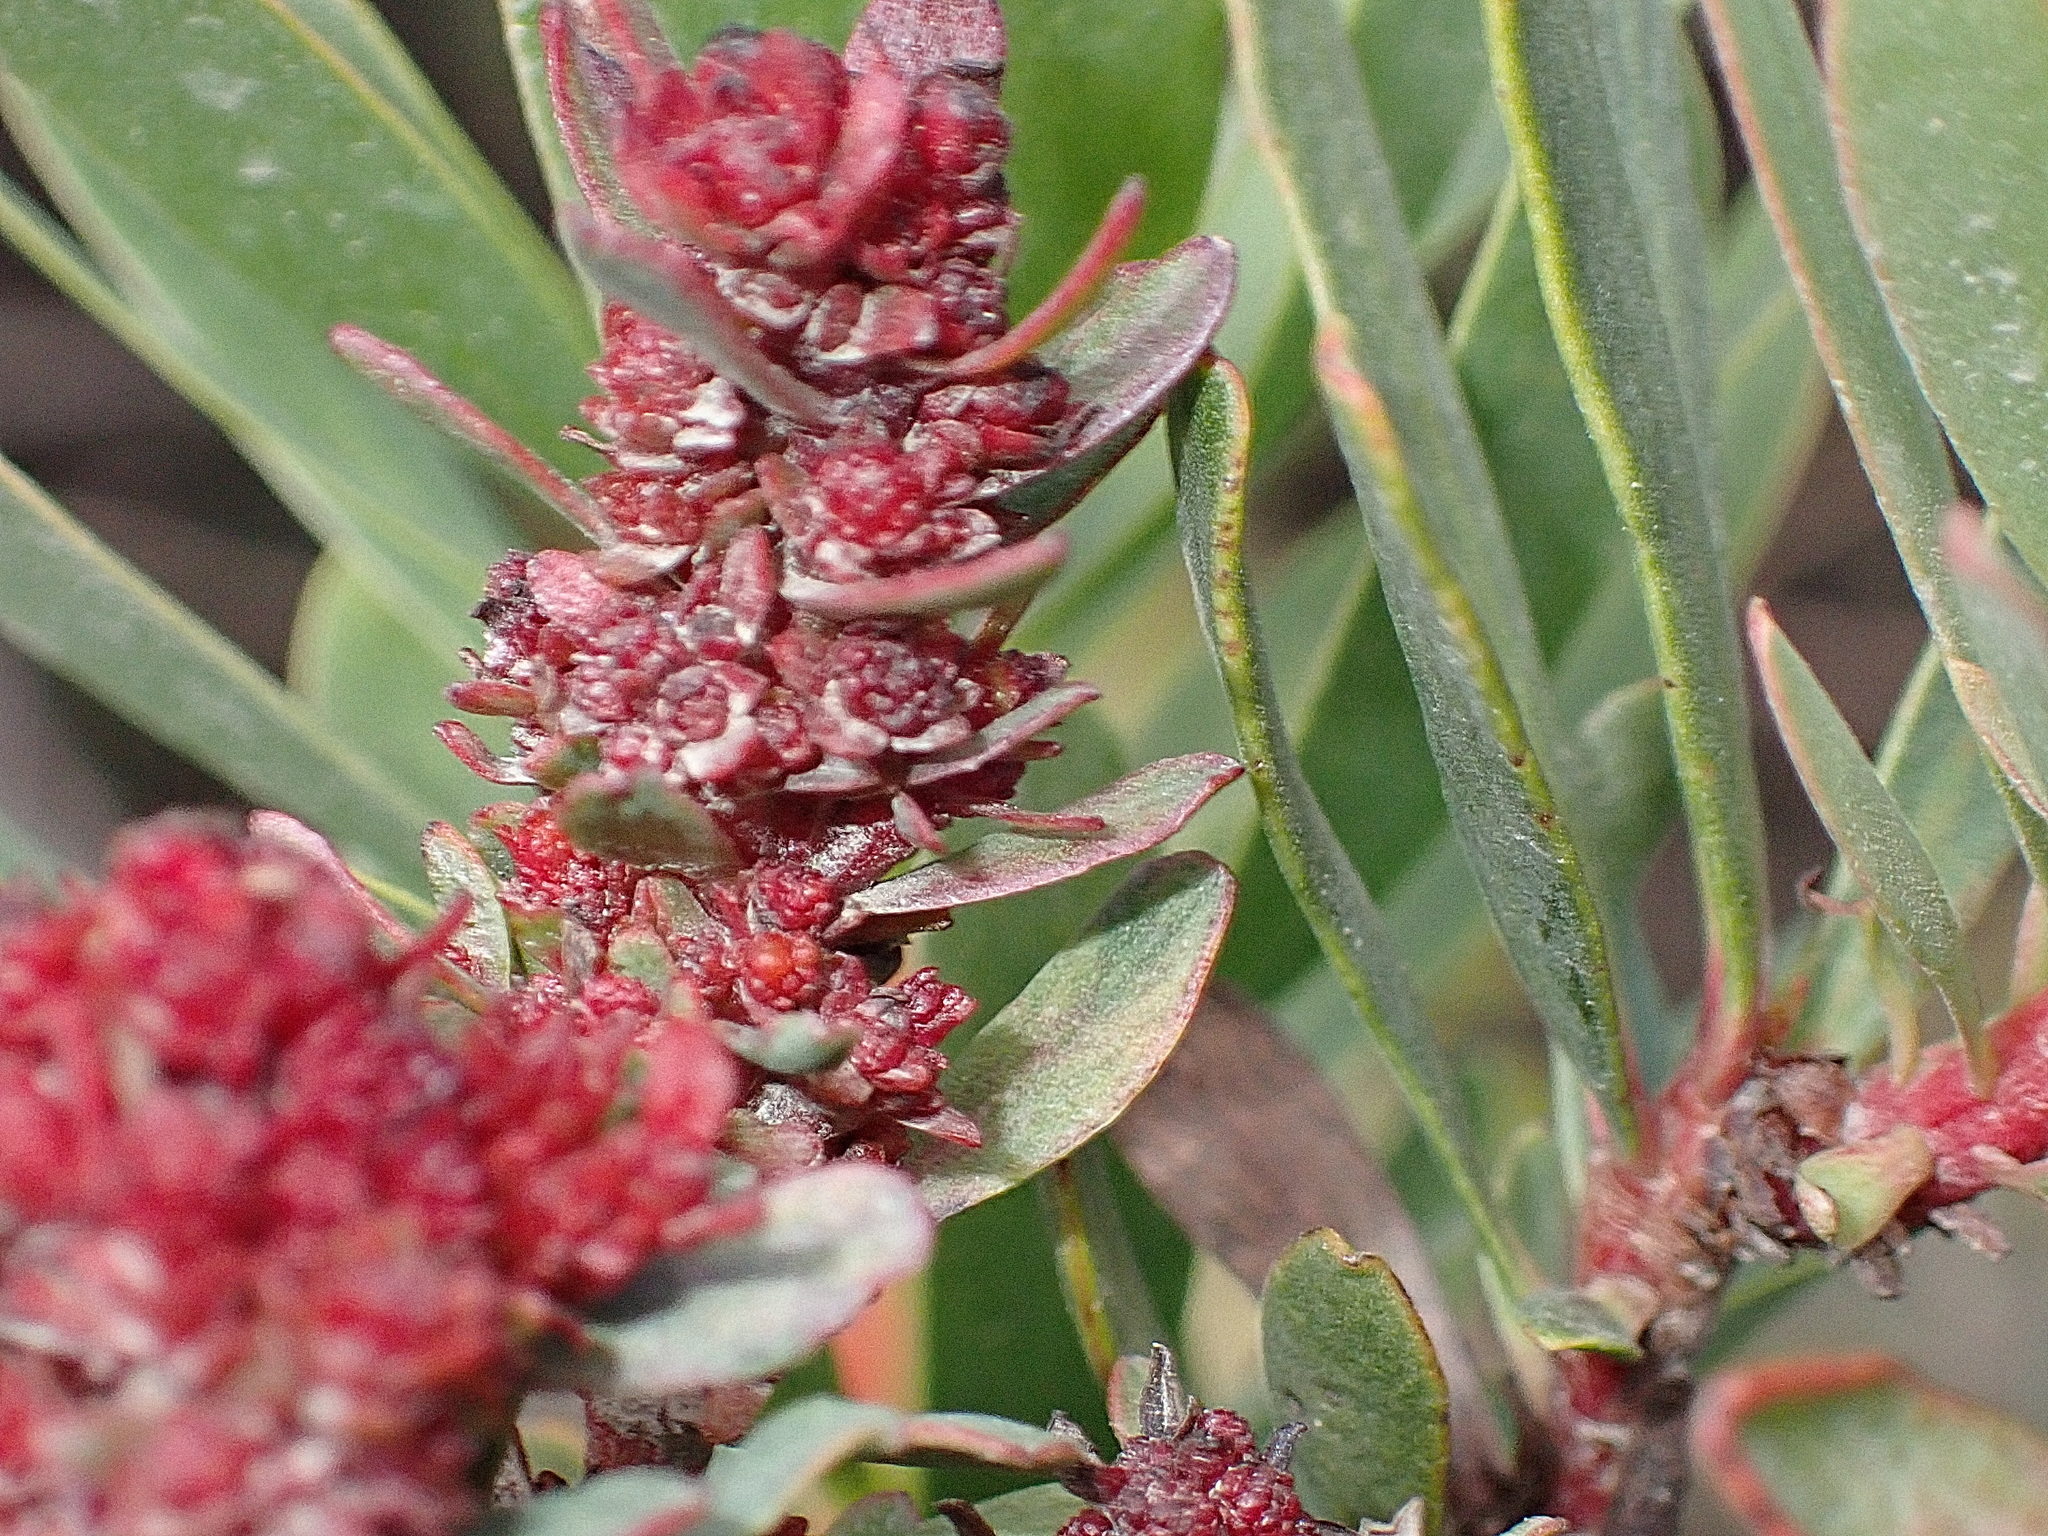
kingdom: Bacteria
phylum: Firmicutes
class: Bacilli
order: Acholeplasmatales
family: Acholeplasmataceae
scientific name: Acholeplasmataceae
